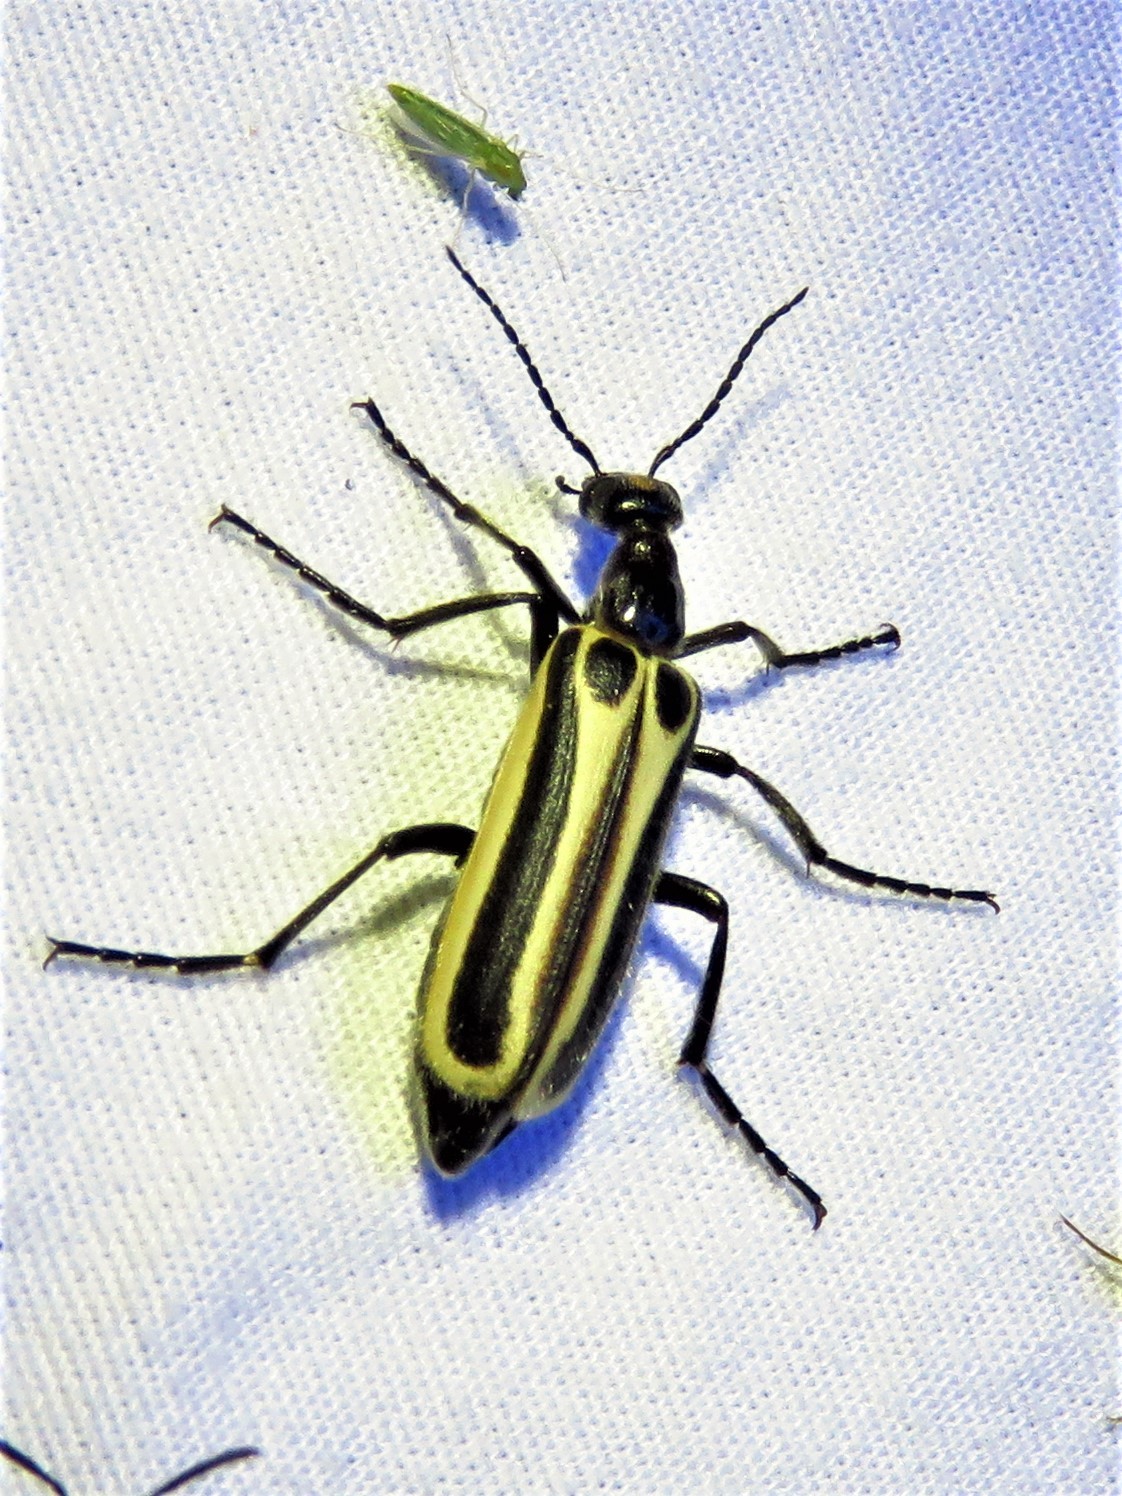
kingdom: Animalia
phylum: Arthropoda
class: Insecta
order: Coleoptera
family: Meloidae
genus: Pyrota
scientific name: Pyrota invita
